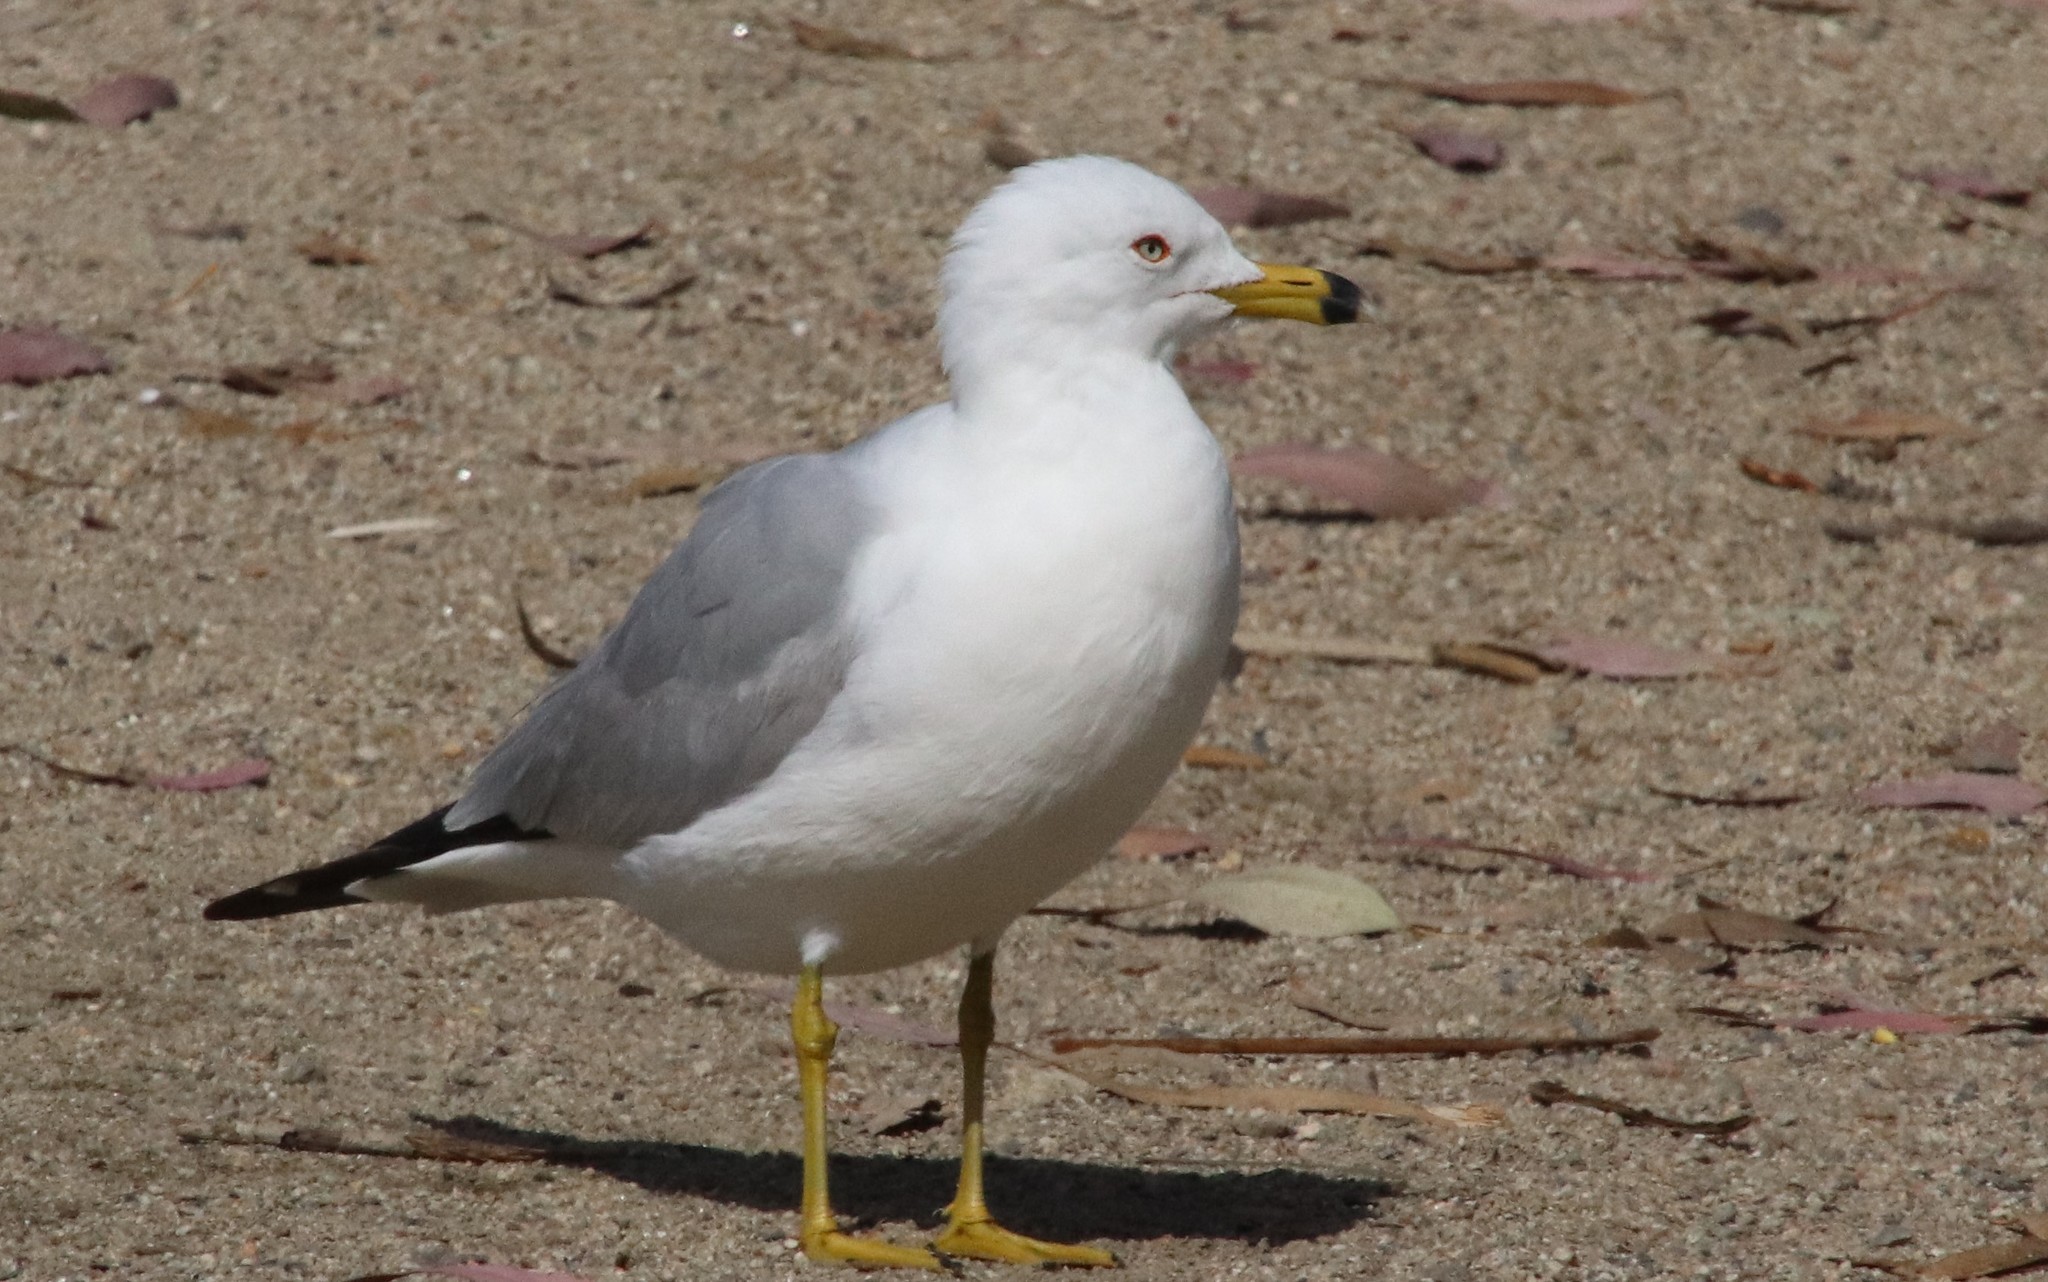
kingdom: Animalia
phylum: Chordata
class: Aves
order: Charadriiformes
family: Laridae
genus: Larus
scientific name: Larus delawarensis
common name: Ring-billed gull
